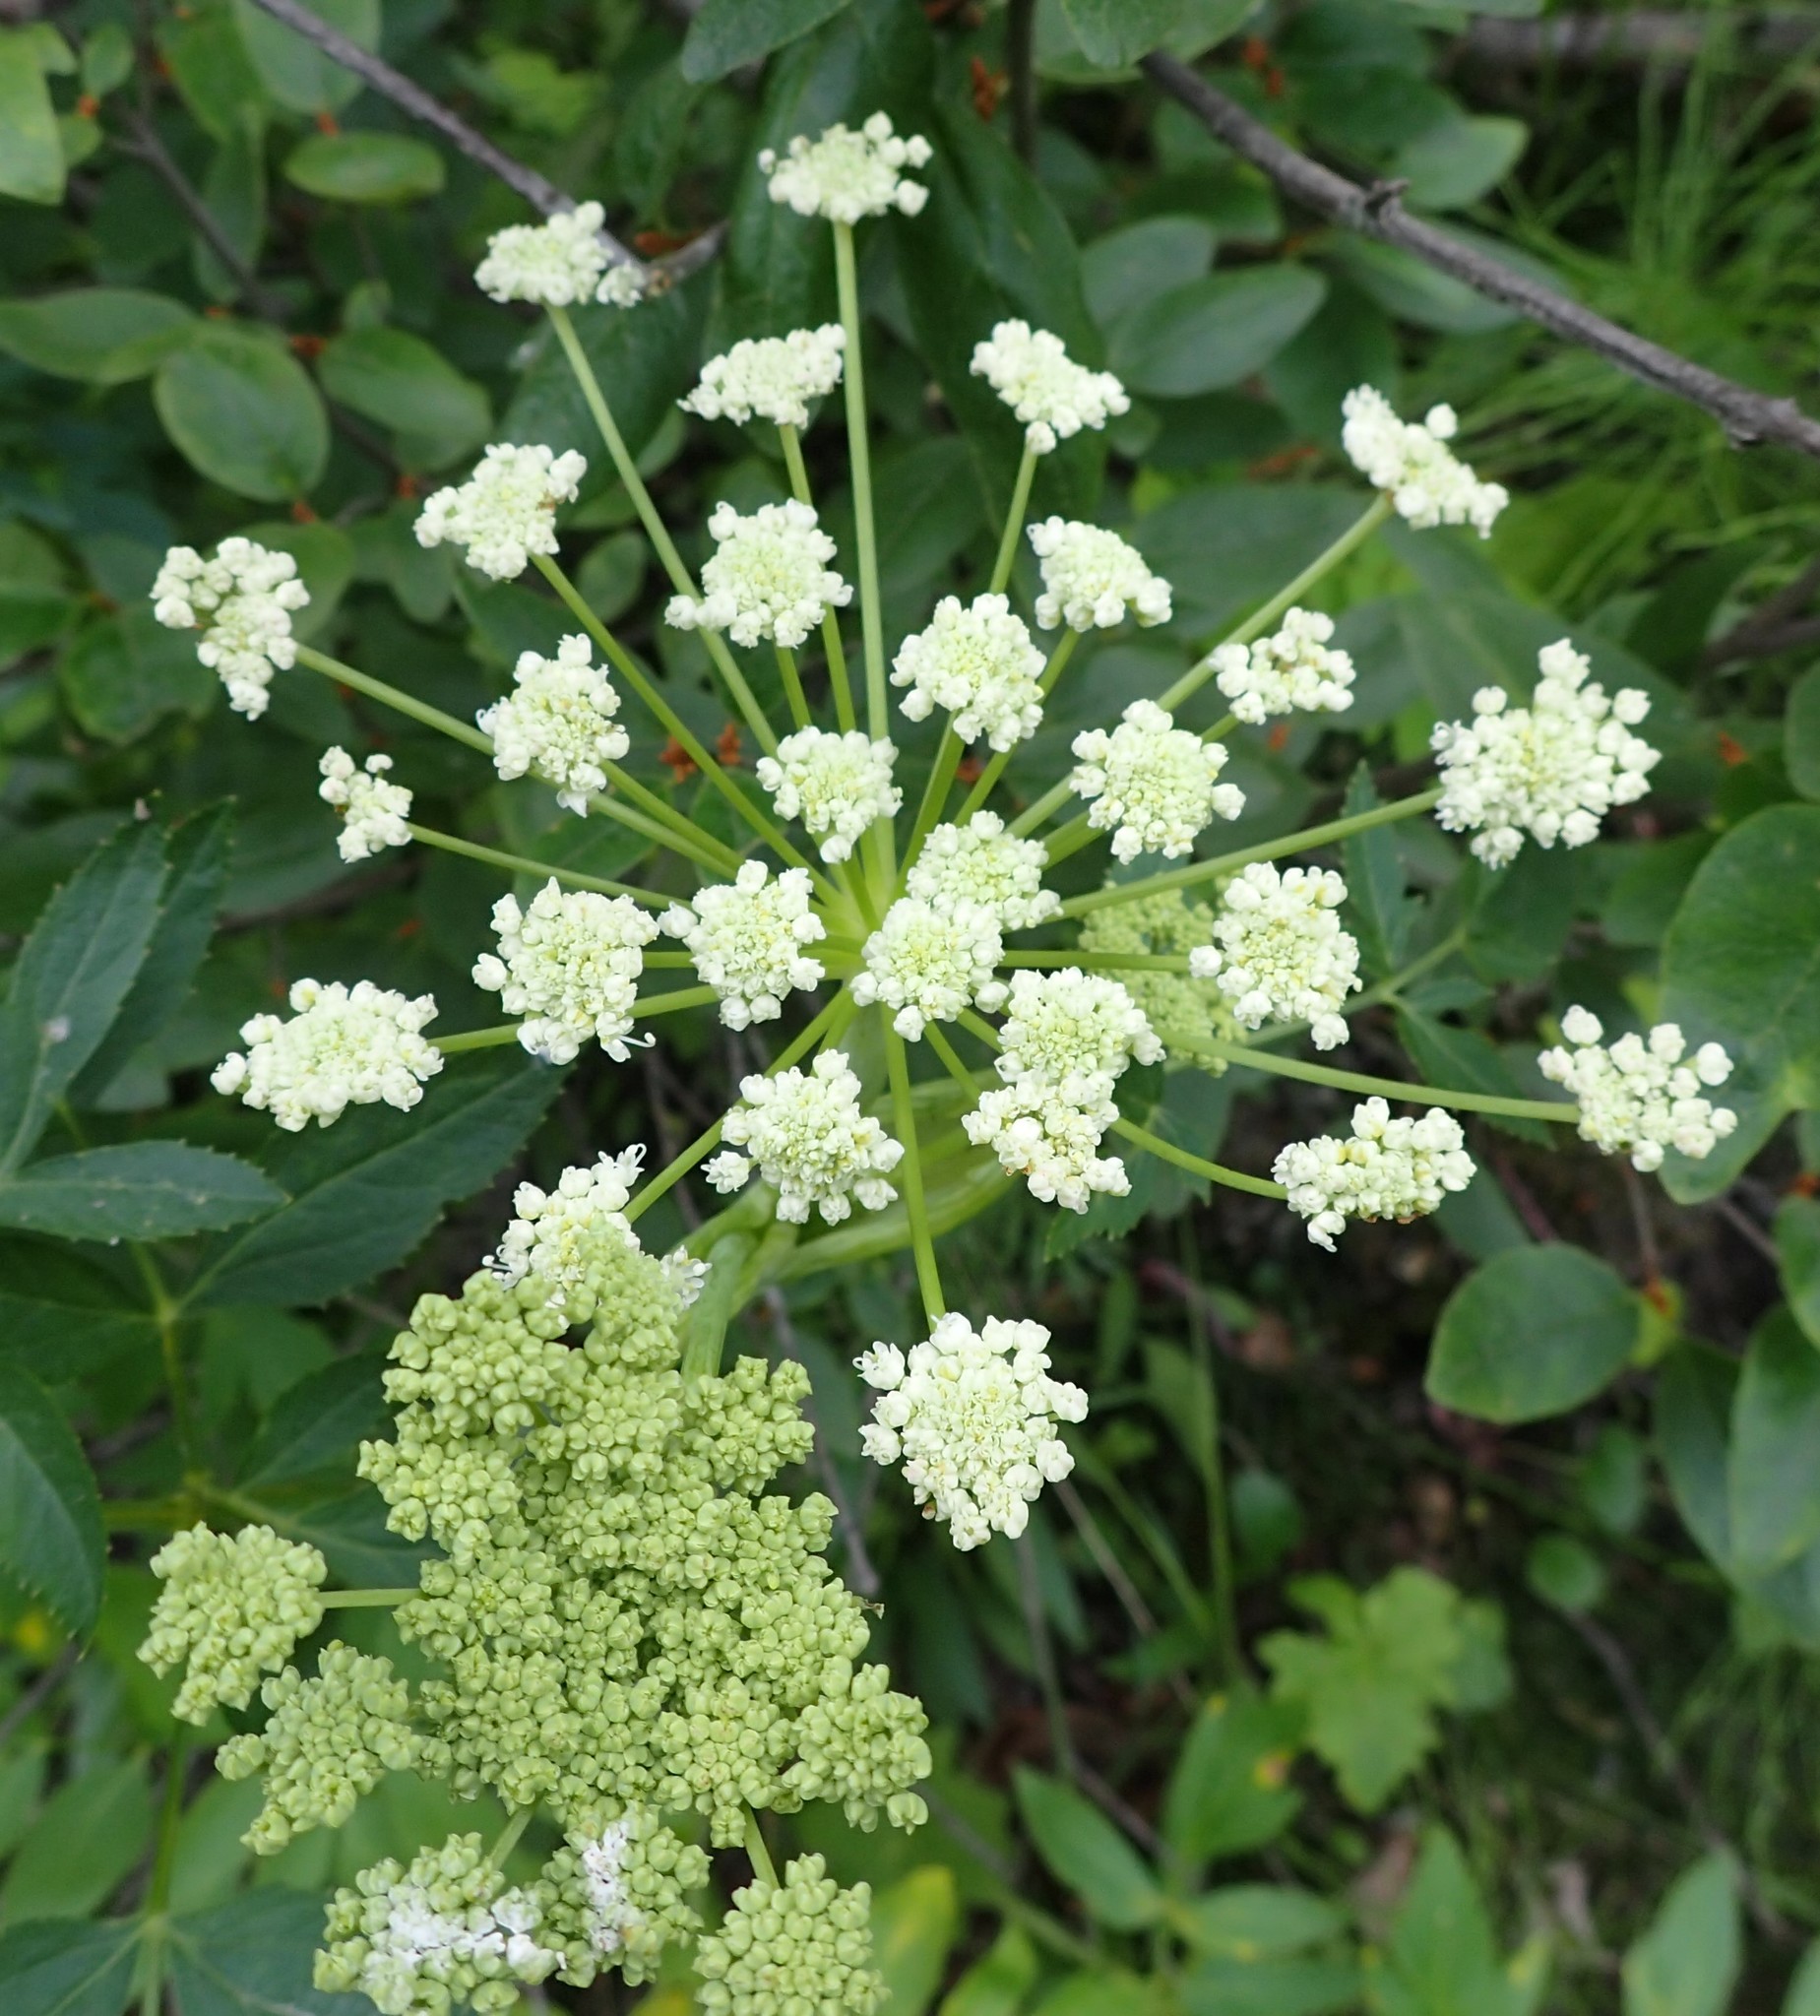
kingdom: Plantae
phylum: Tracheophyta
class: Magnoliopsida
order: Apiales
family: Apiaceae
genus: Angelica
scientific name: Angelica arguta
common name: Lyall's angelica
